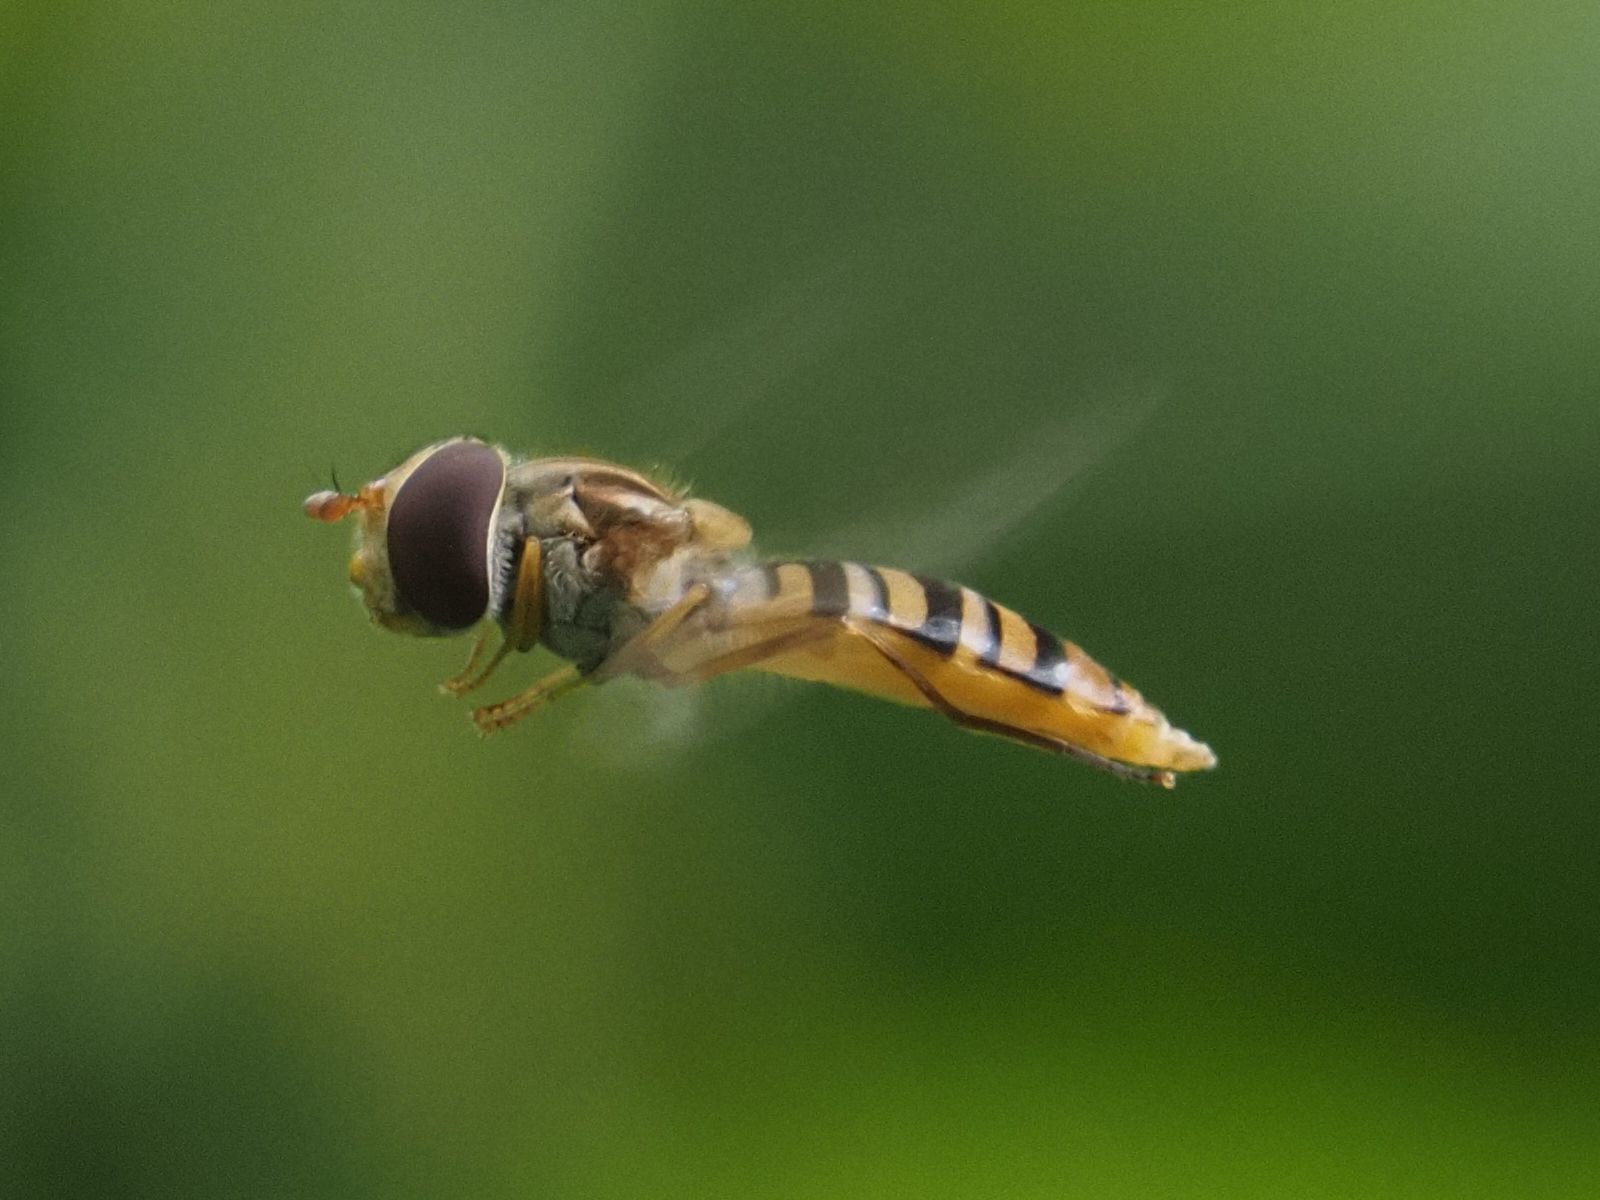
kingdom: Animalia
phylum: Arthropoda
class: Insecta
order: Diptera
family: Syrphidae
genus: Episyrphus
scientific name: Episyrphus balteatus
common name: Marmalade hoverfly
